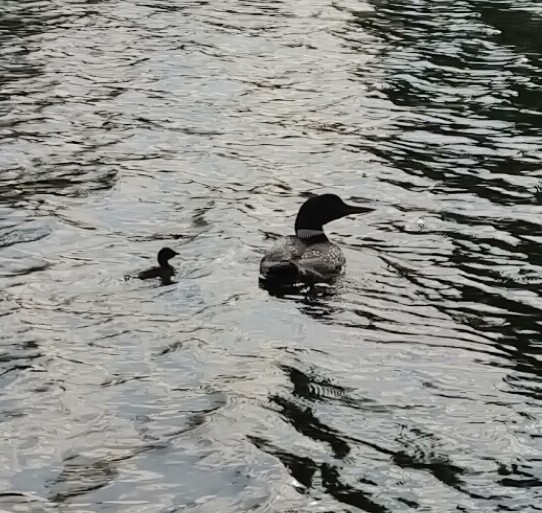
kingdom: Animalia
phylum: Chordata
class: Aves
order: Gaviiformes
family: Gaviidae
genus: Gavia
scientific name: Gavia immer
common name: Common loon
